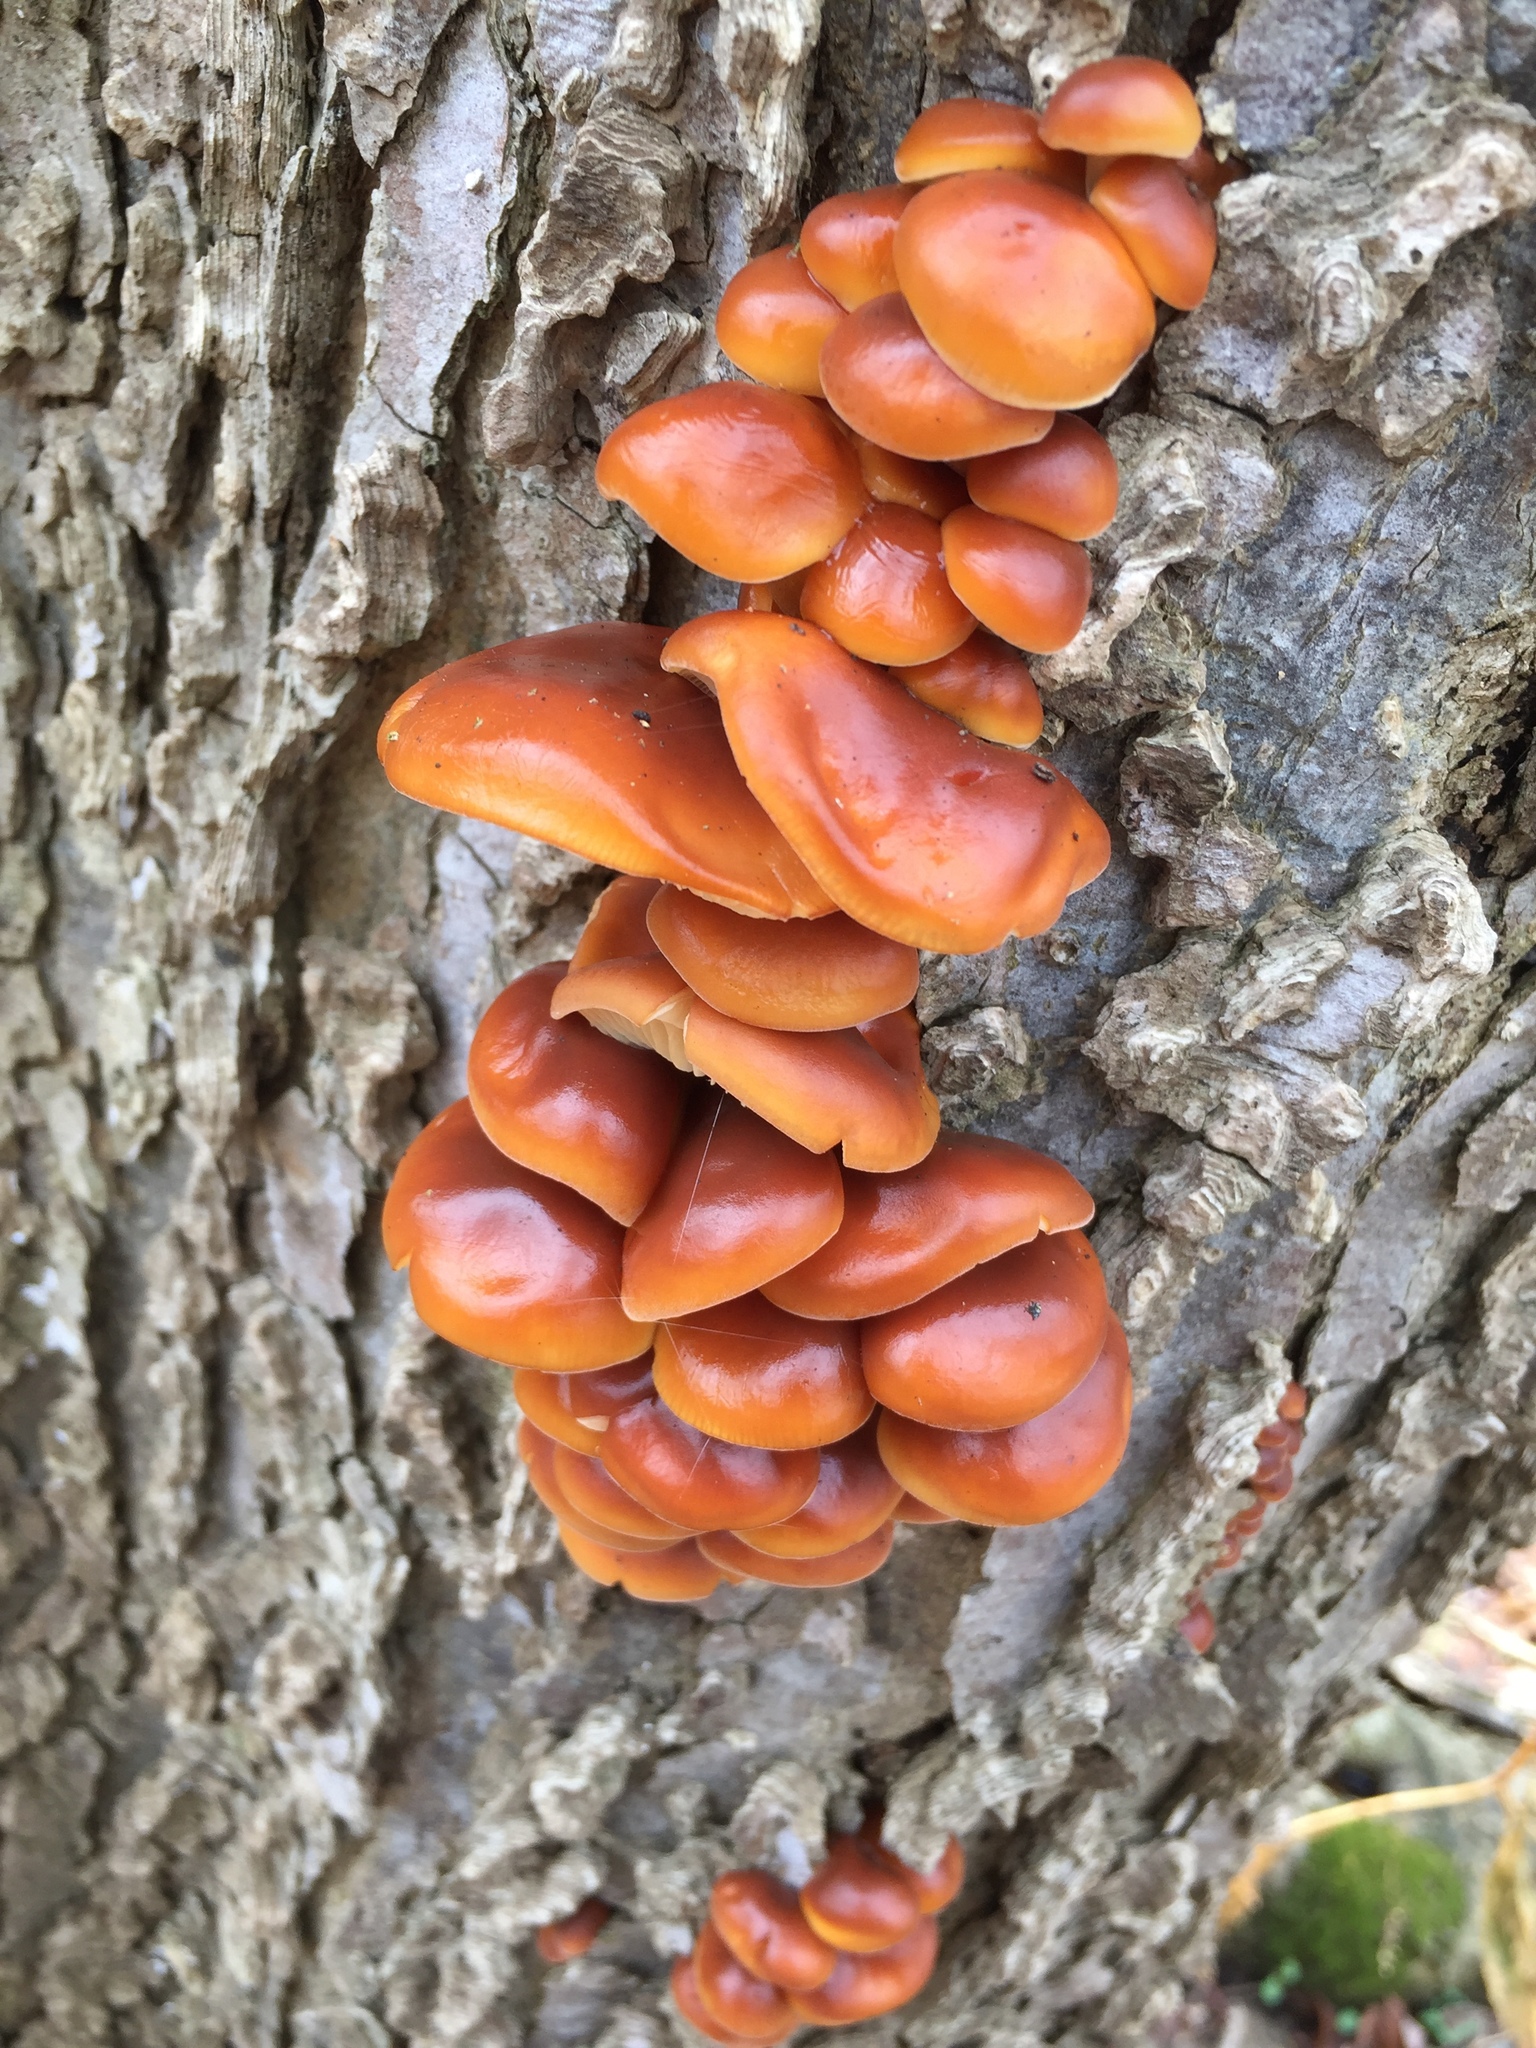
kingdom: Fungi
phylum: Basidiomycota
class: Agaricomycetes
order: Agaricales
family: Physalacriaceae
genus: Flammulina
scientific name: Flammulina velutipes
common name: Velvet shank
